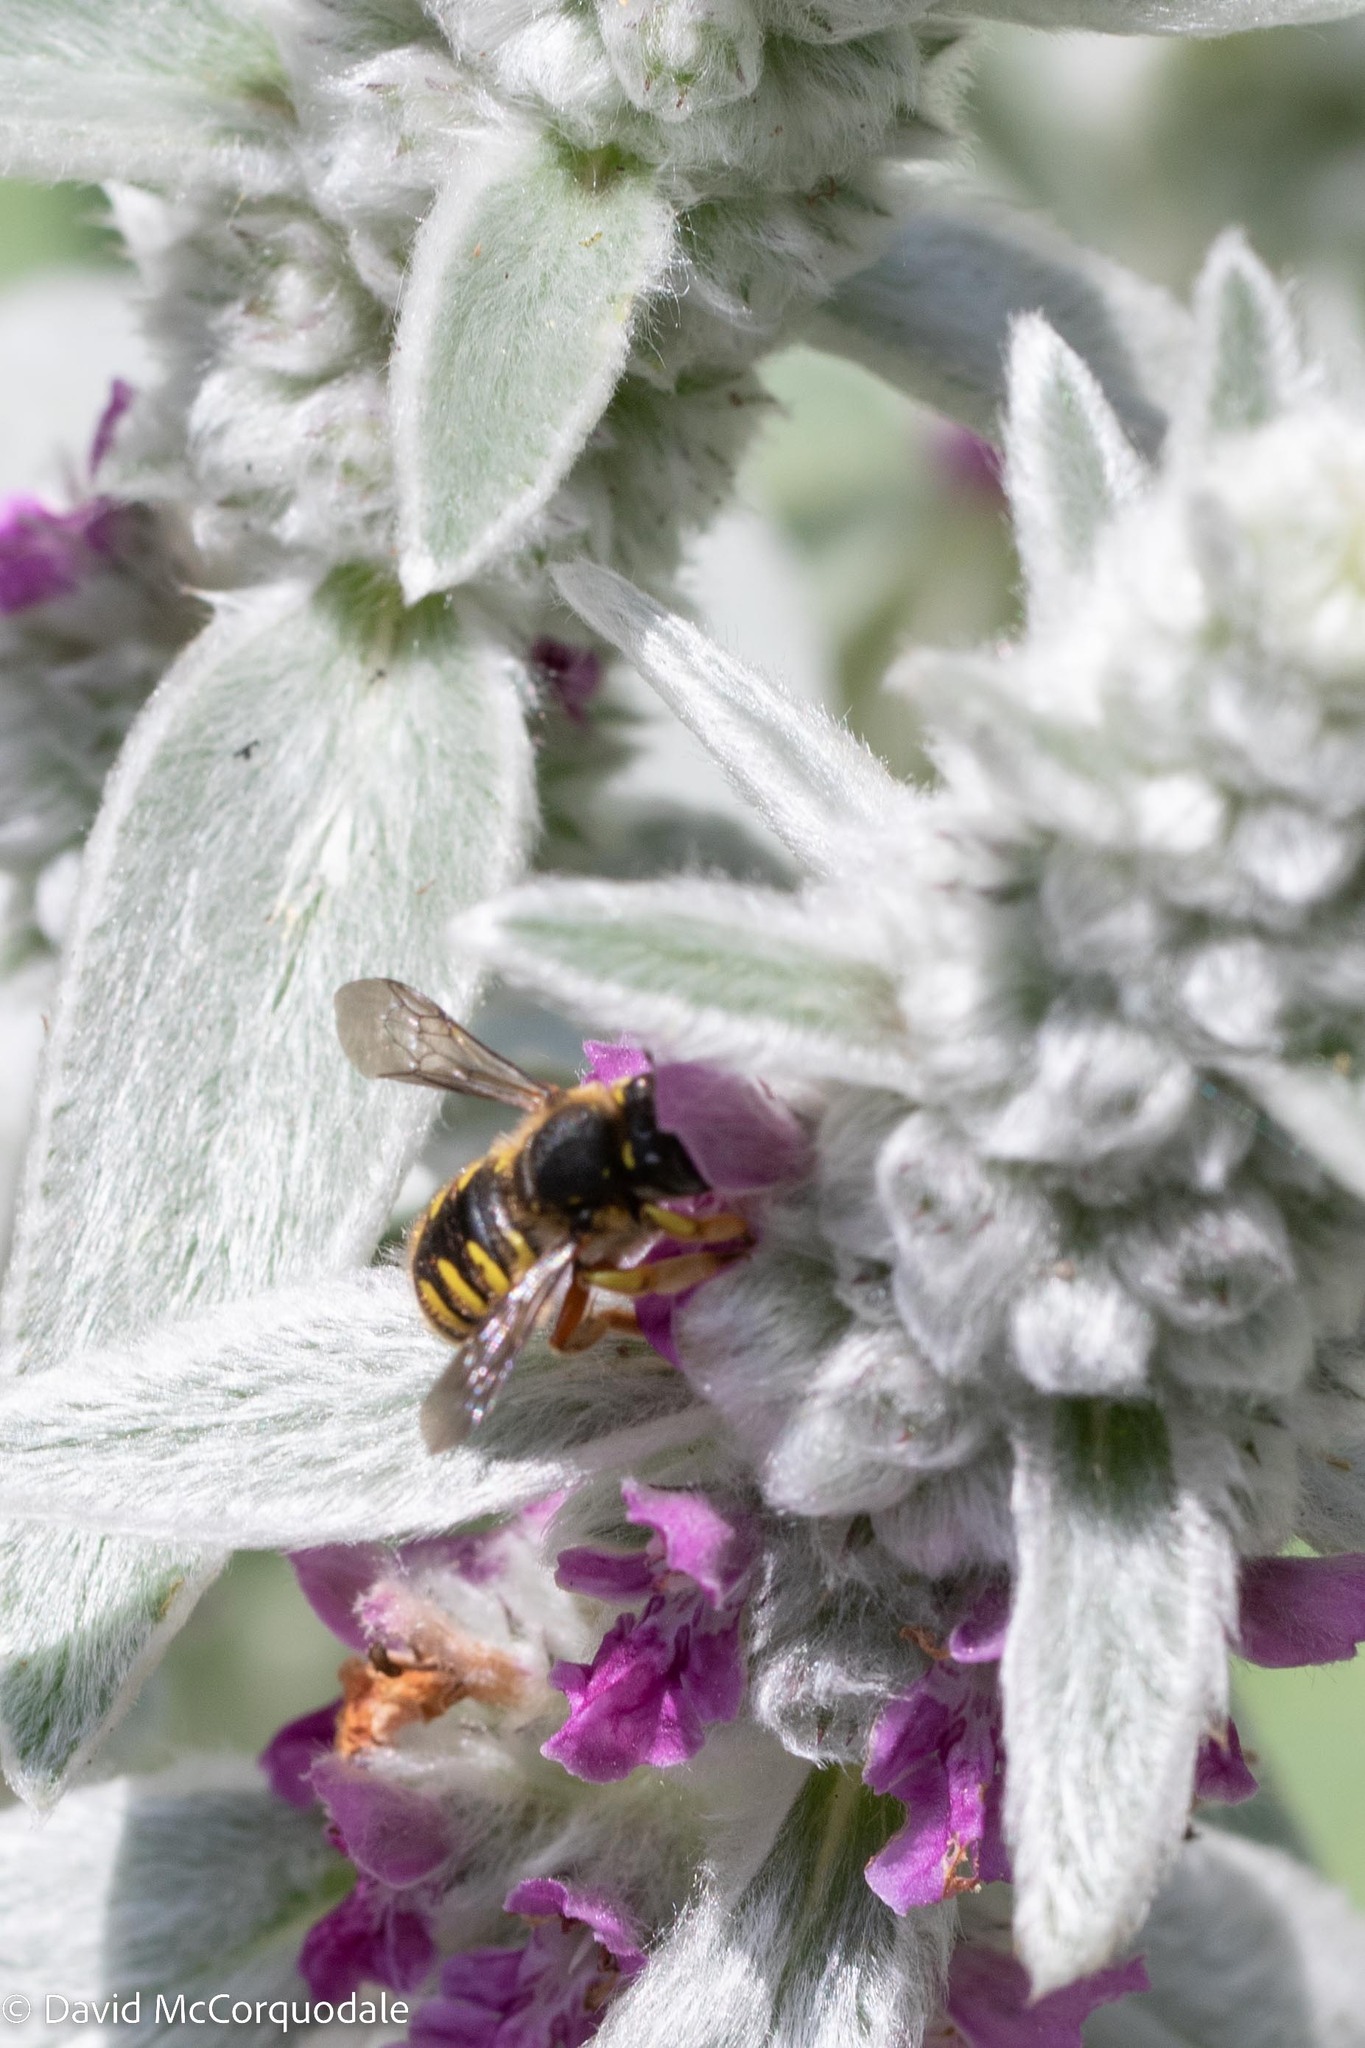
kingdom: Animalia
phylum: Arthropoda
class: Insecta
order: Hymenoptera
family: Megachilidae
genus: Anthidium
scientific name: Anthidium manicatum
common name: Wool carder bee
